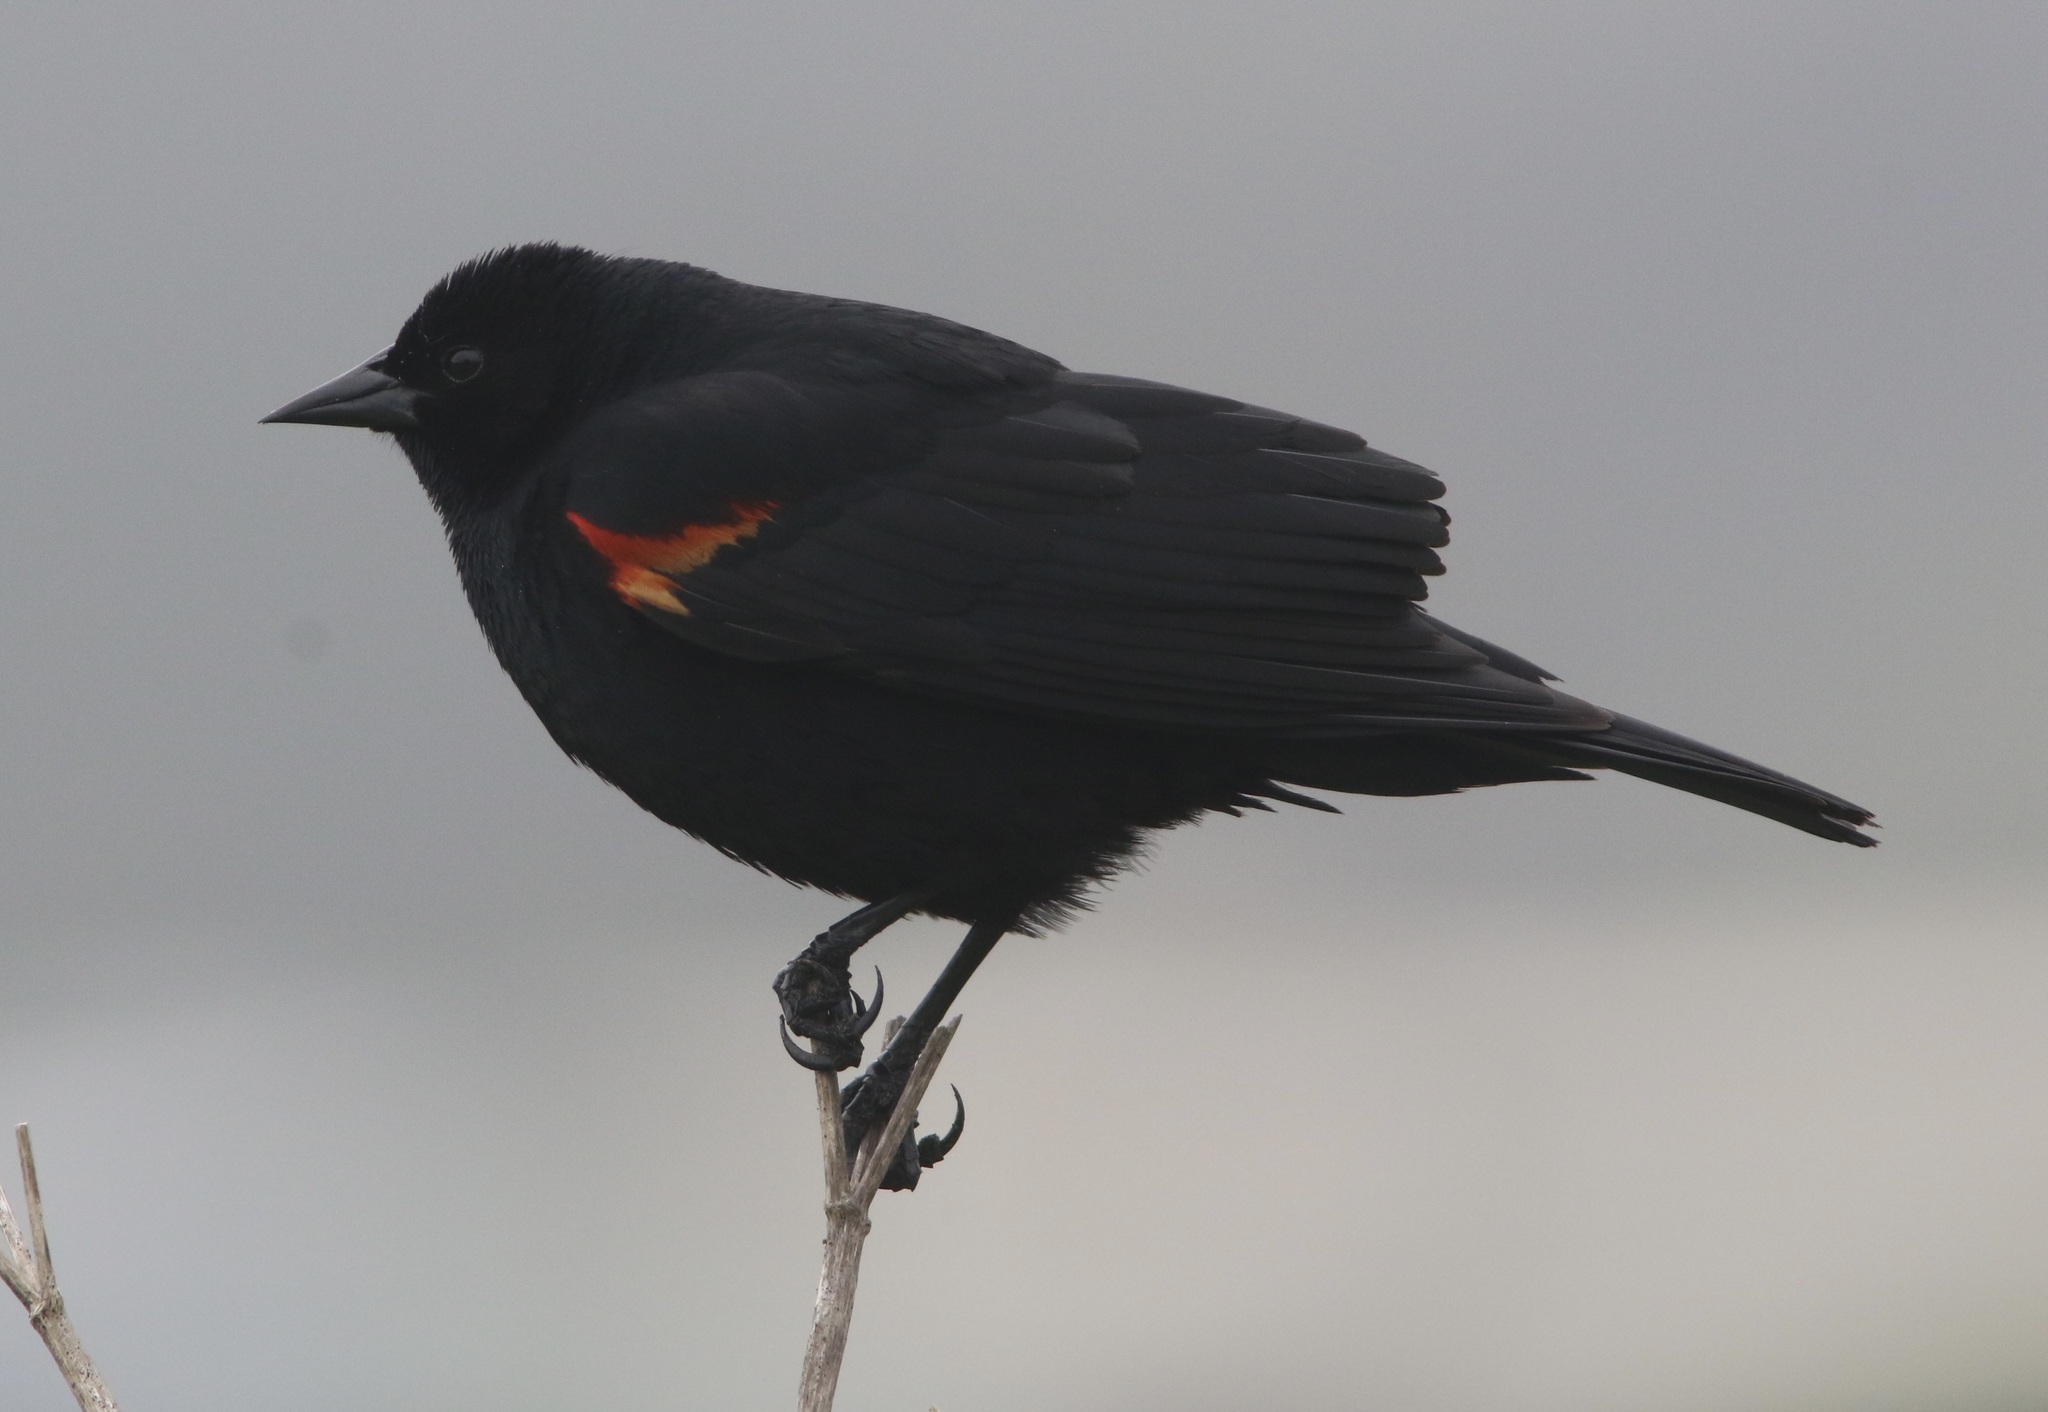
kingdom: Animalia
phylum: Chordata
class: Aves
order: Passeriformes
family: Icteridae
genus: Agelaius
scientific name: Agelaius phoeniceus
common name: Red-winged blackbird
